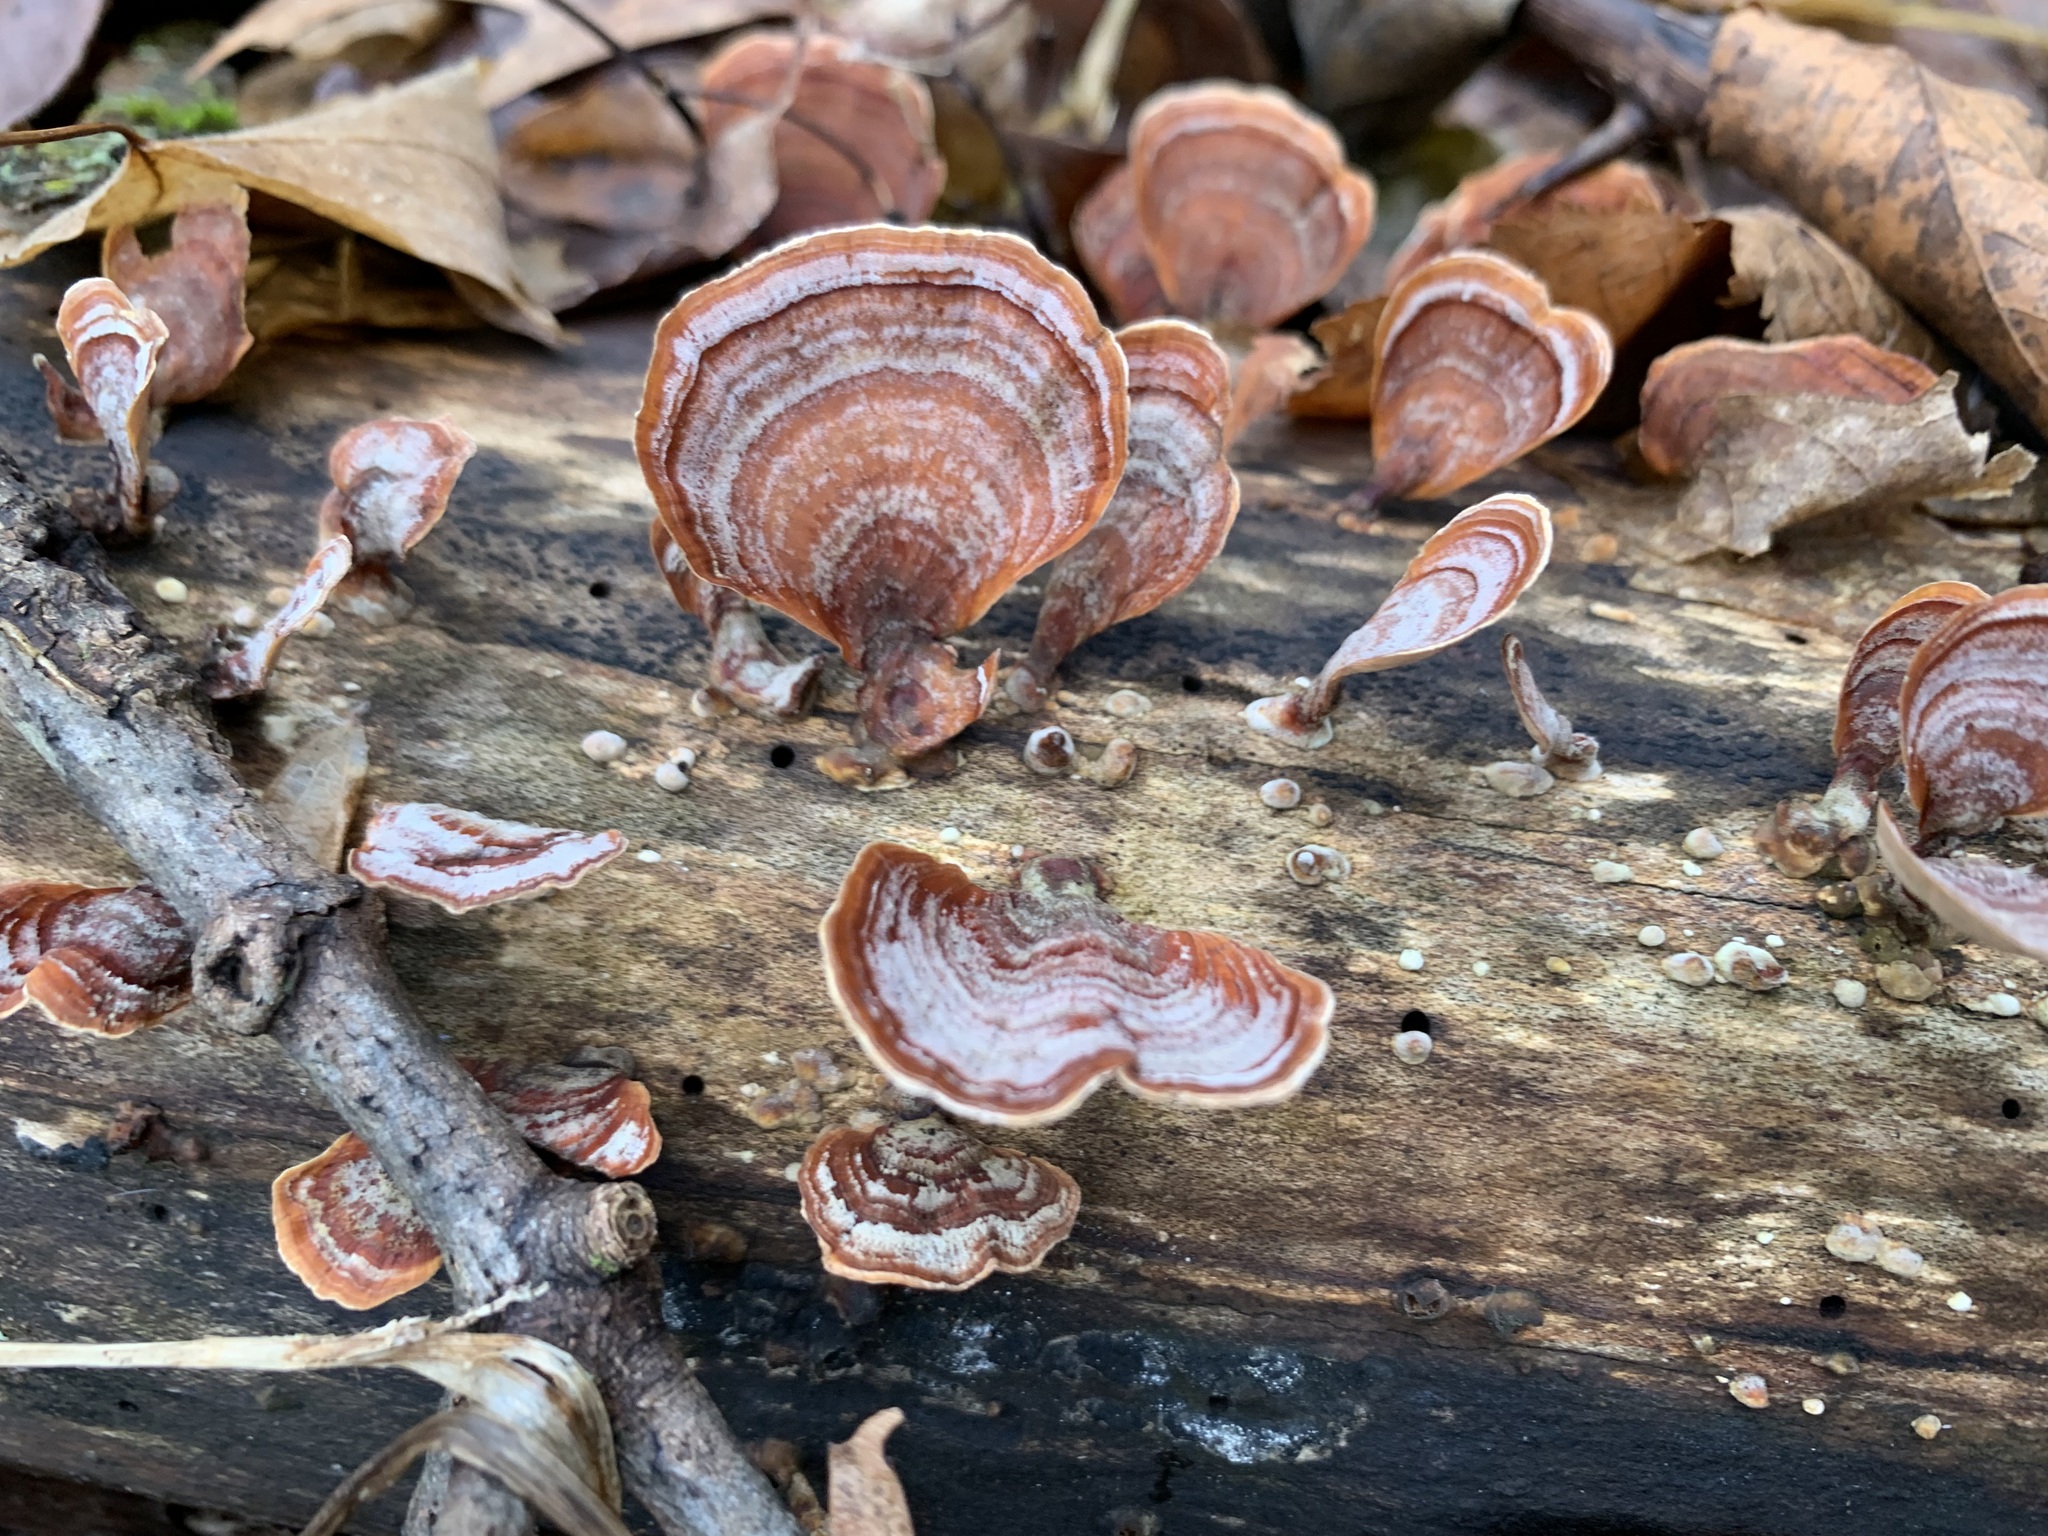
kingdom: Fungi
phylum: Basidiomycota
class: Agaricomycetes
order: Russulales
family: Stereaceae
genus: Stereum
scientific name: Stereum lobatum
